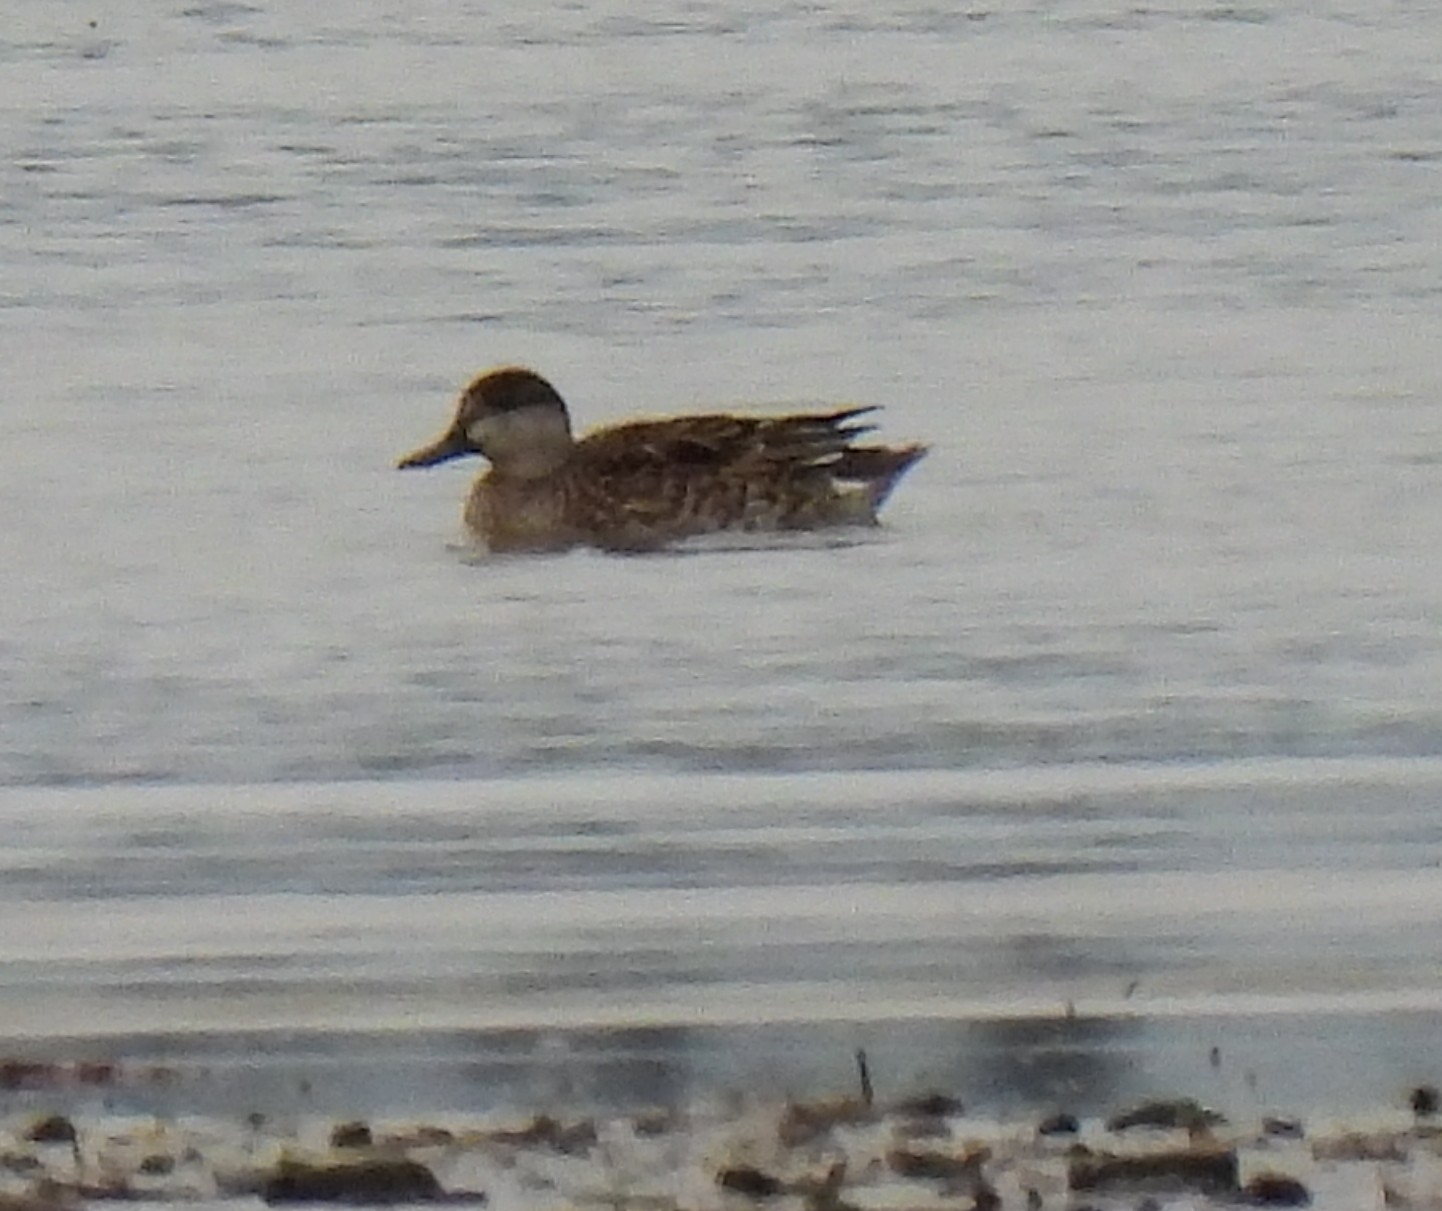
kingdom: Animalia
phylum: Chordata
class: Aves
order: Anseriformes
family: Anatidae
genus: Anas
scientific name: Anas crecca
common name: Eurasian teal
